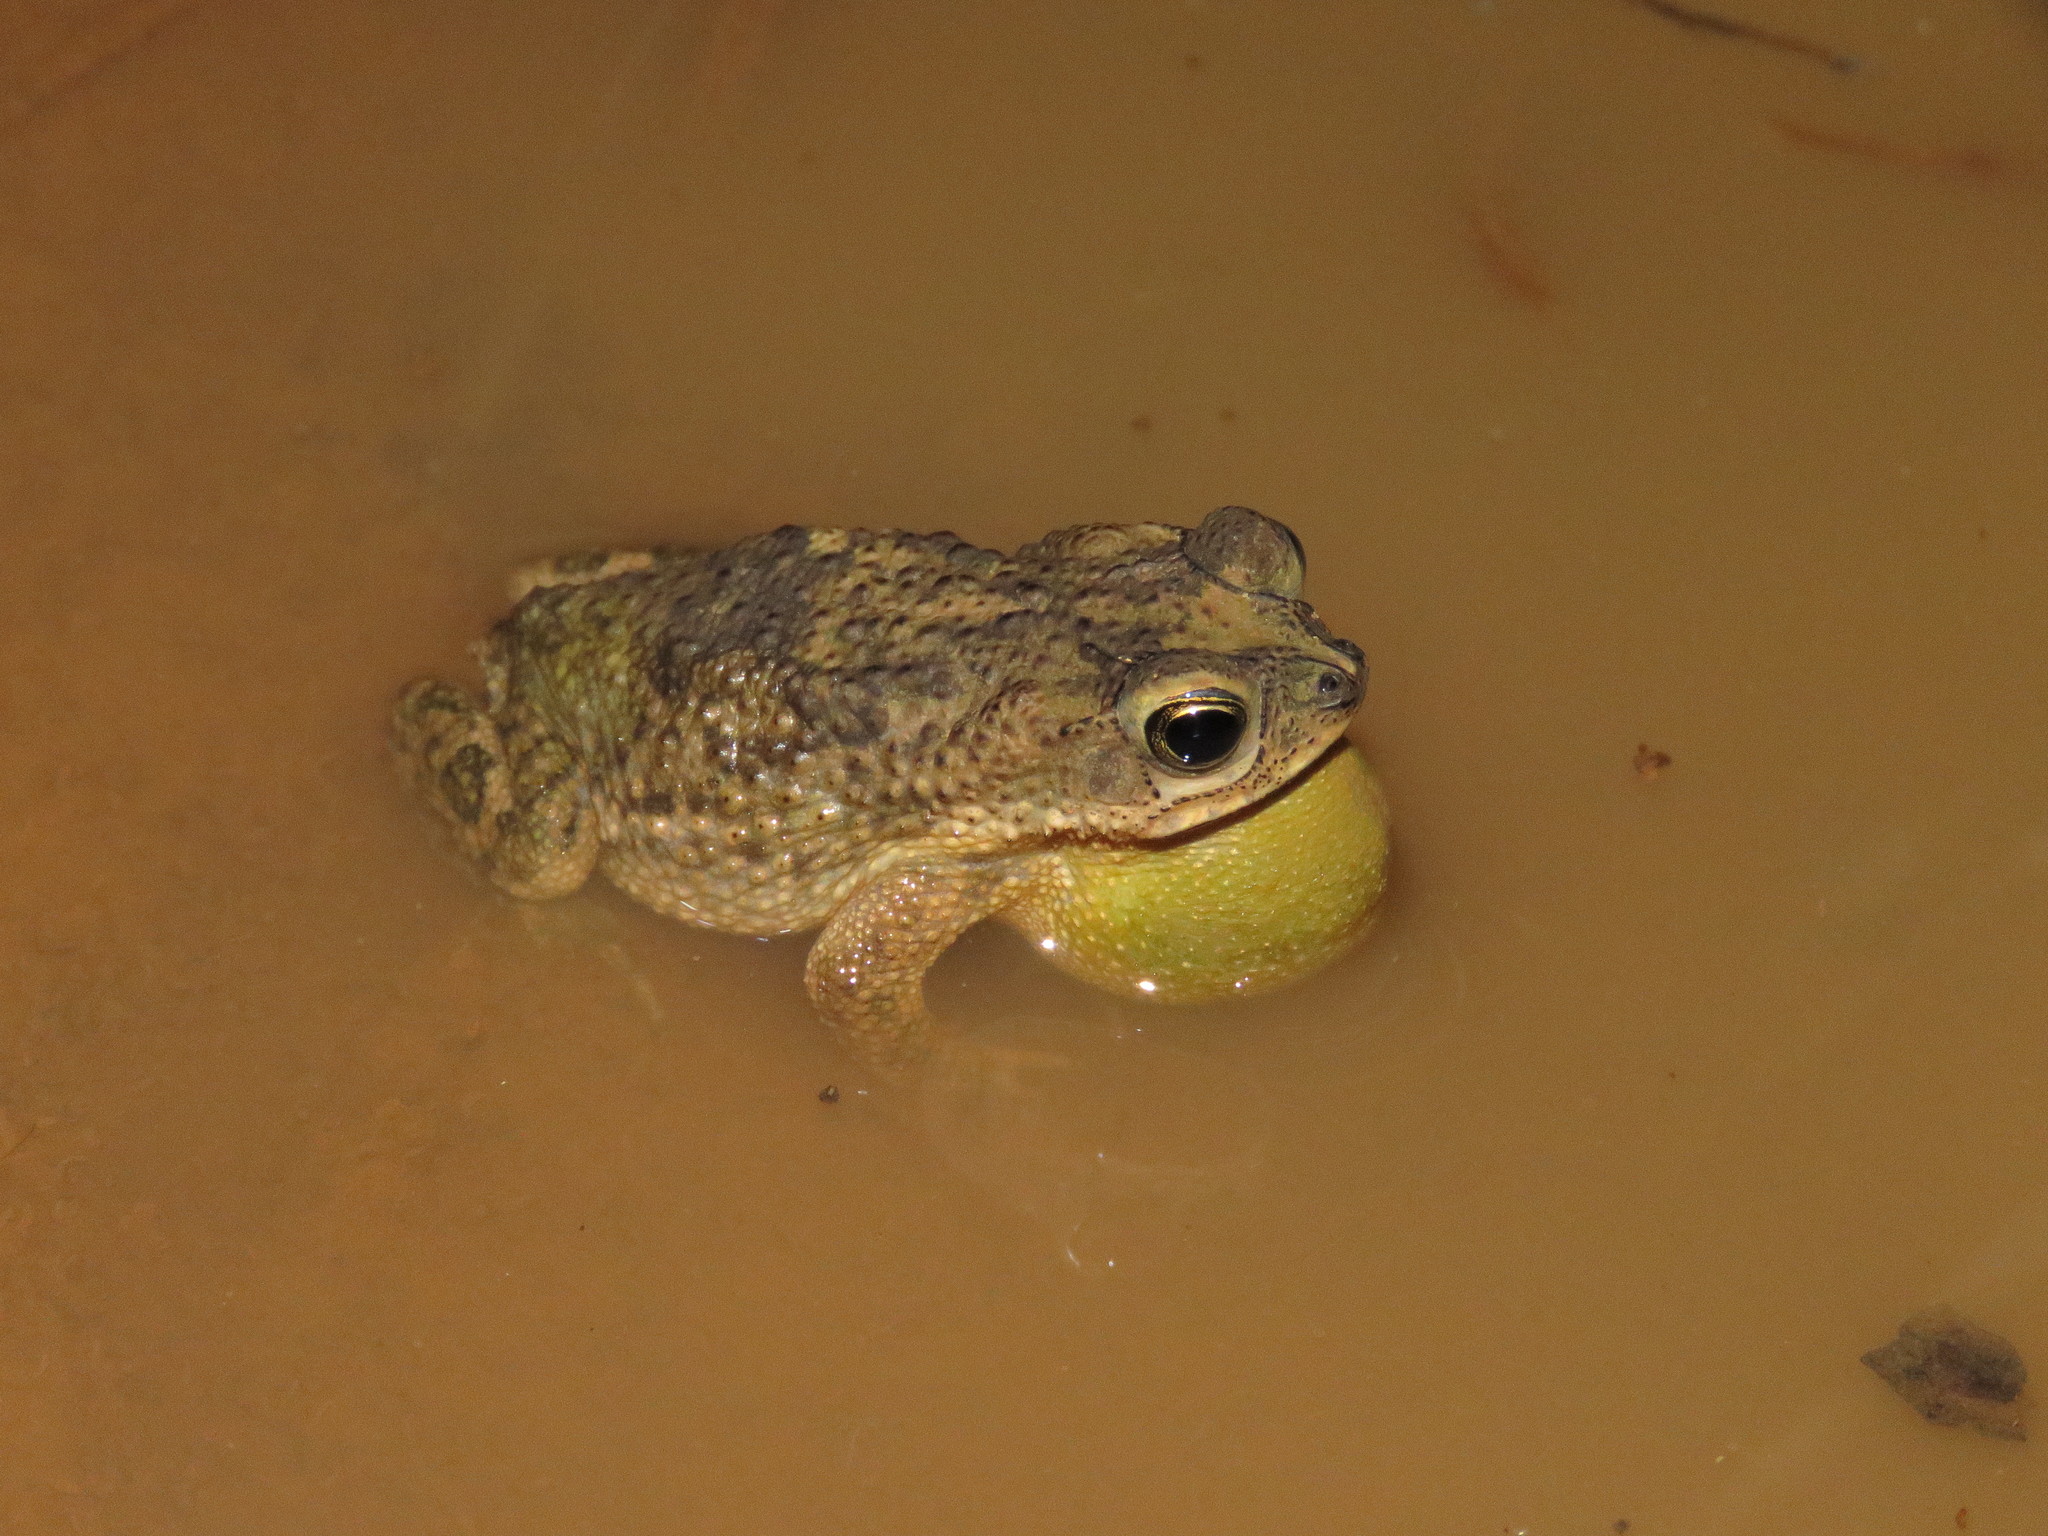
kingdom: Animalia
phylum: Chordata
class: Amphibia
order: Anura
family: Bufonidae
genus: Rhinella
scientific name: Rhinella major
